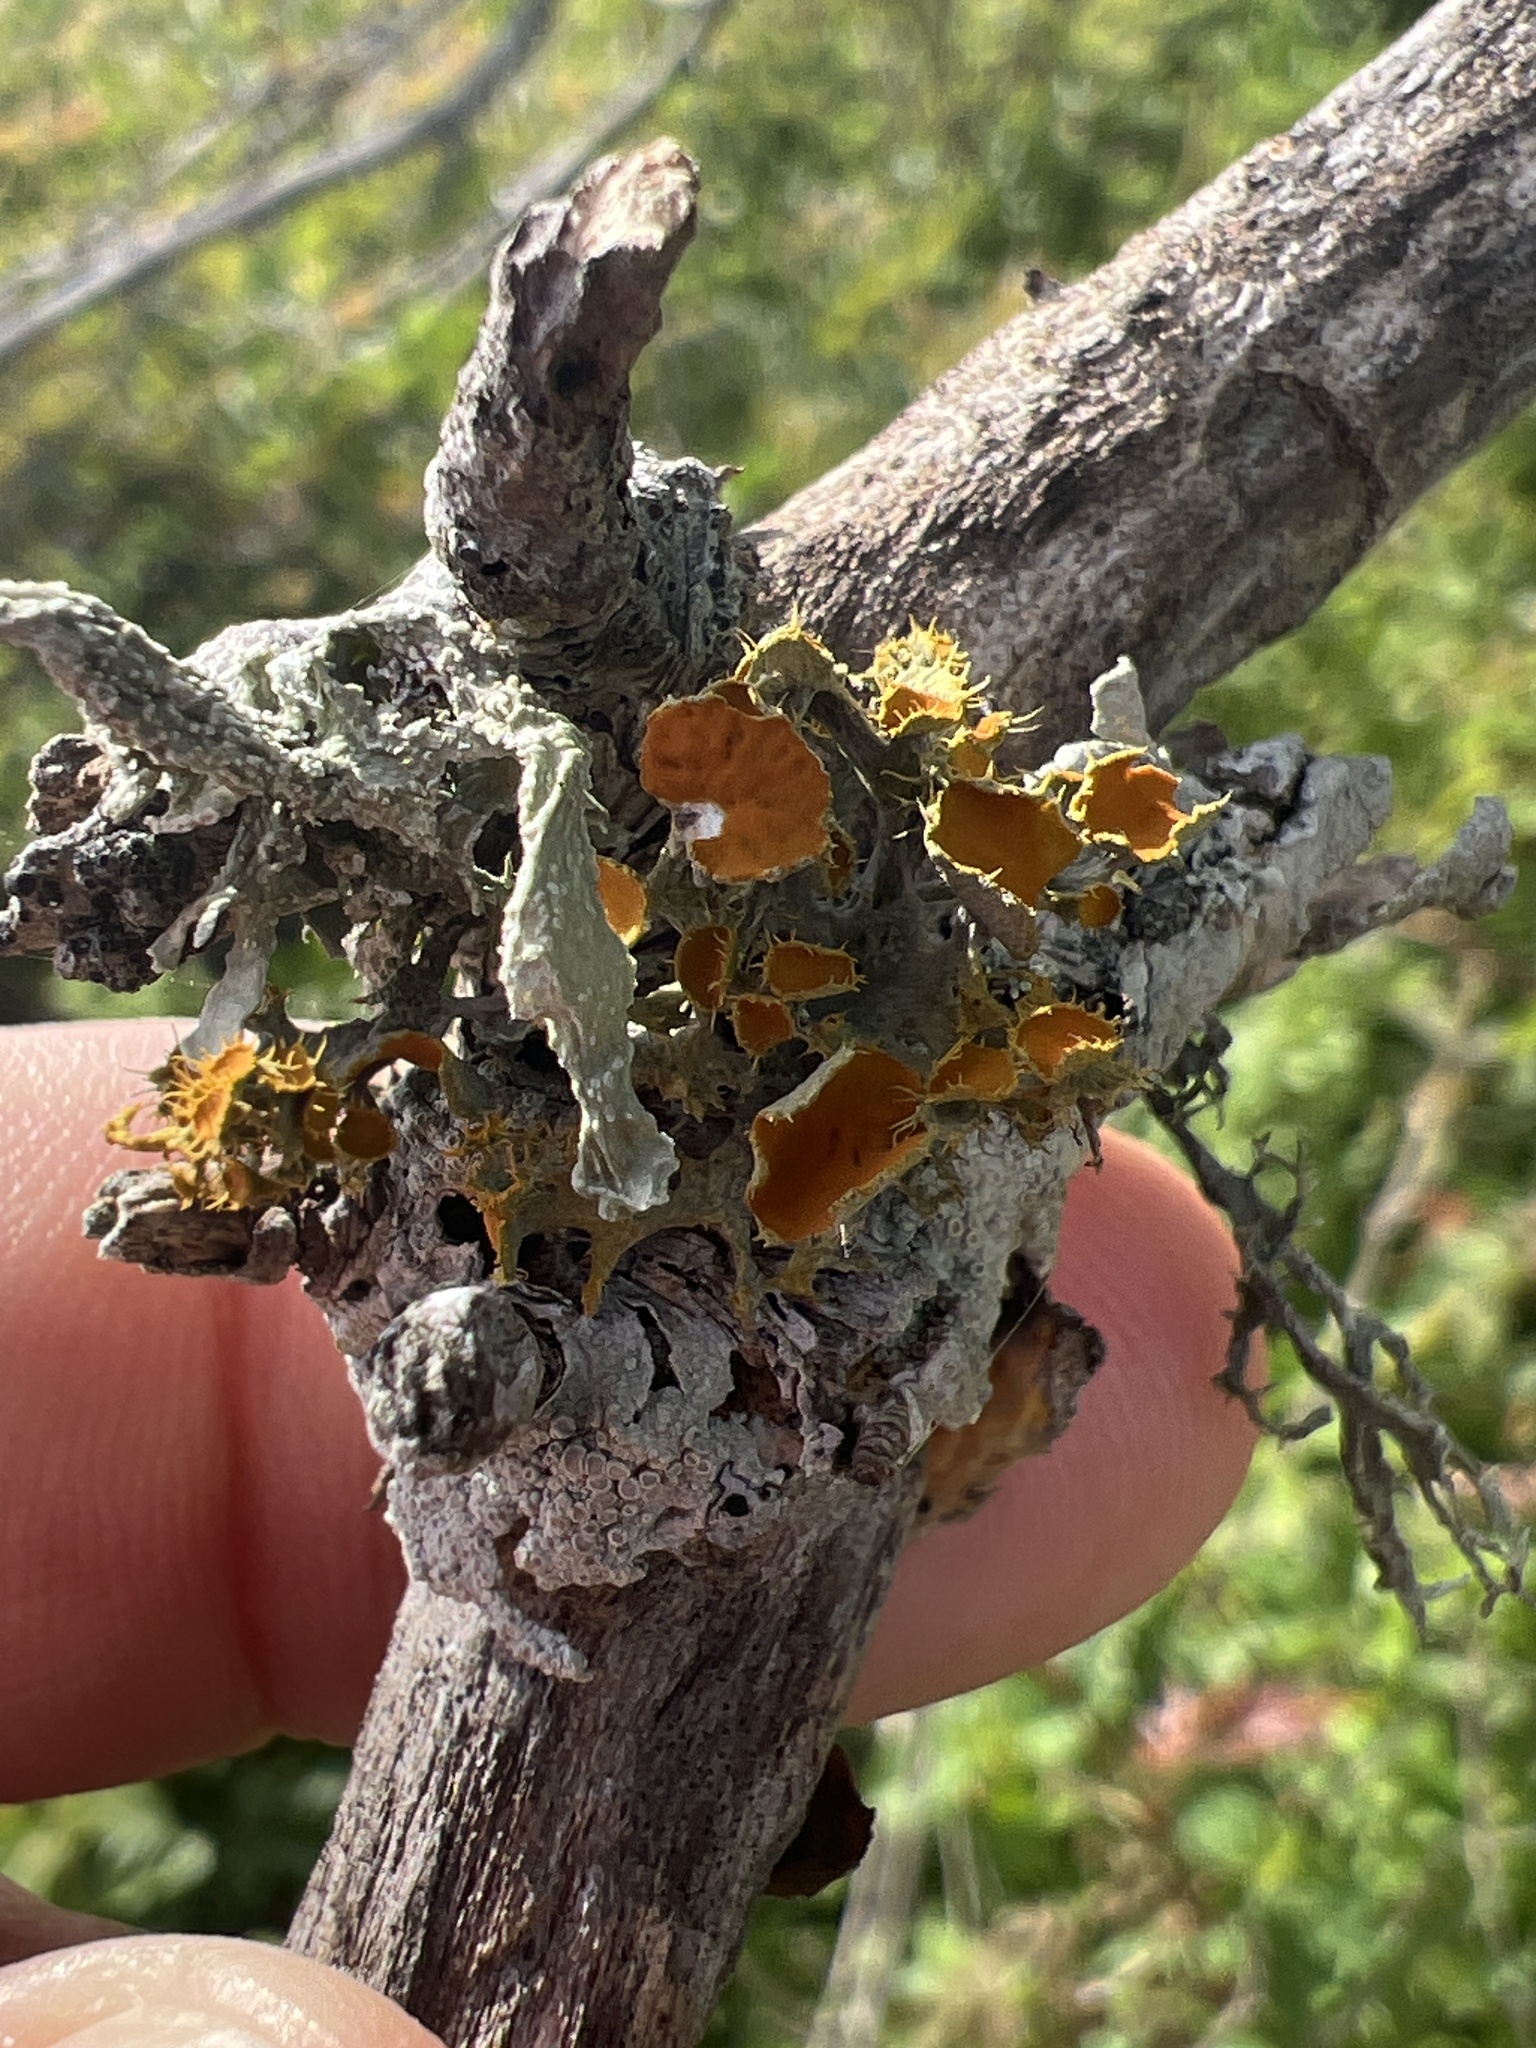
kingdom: Fungi
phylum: Ascomycota
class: Lecanoromycetes
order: Teloschistales
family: Teloschistaceae
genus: Niorma
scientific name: Niorma chrysophthalma
